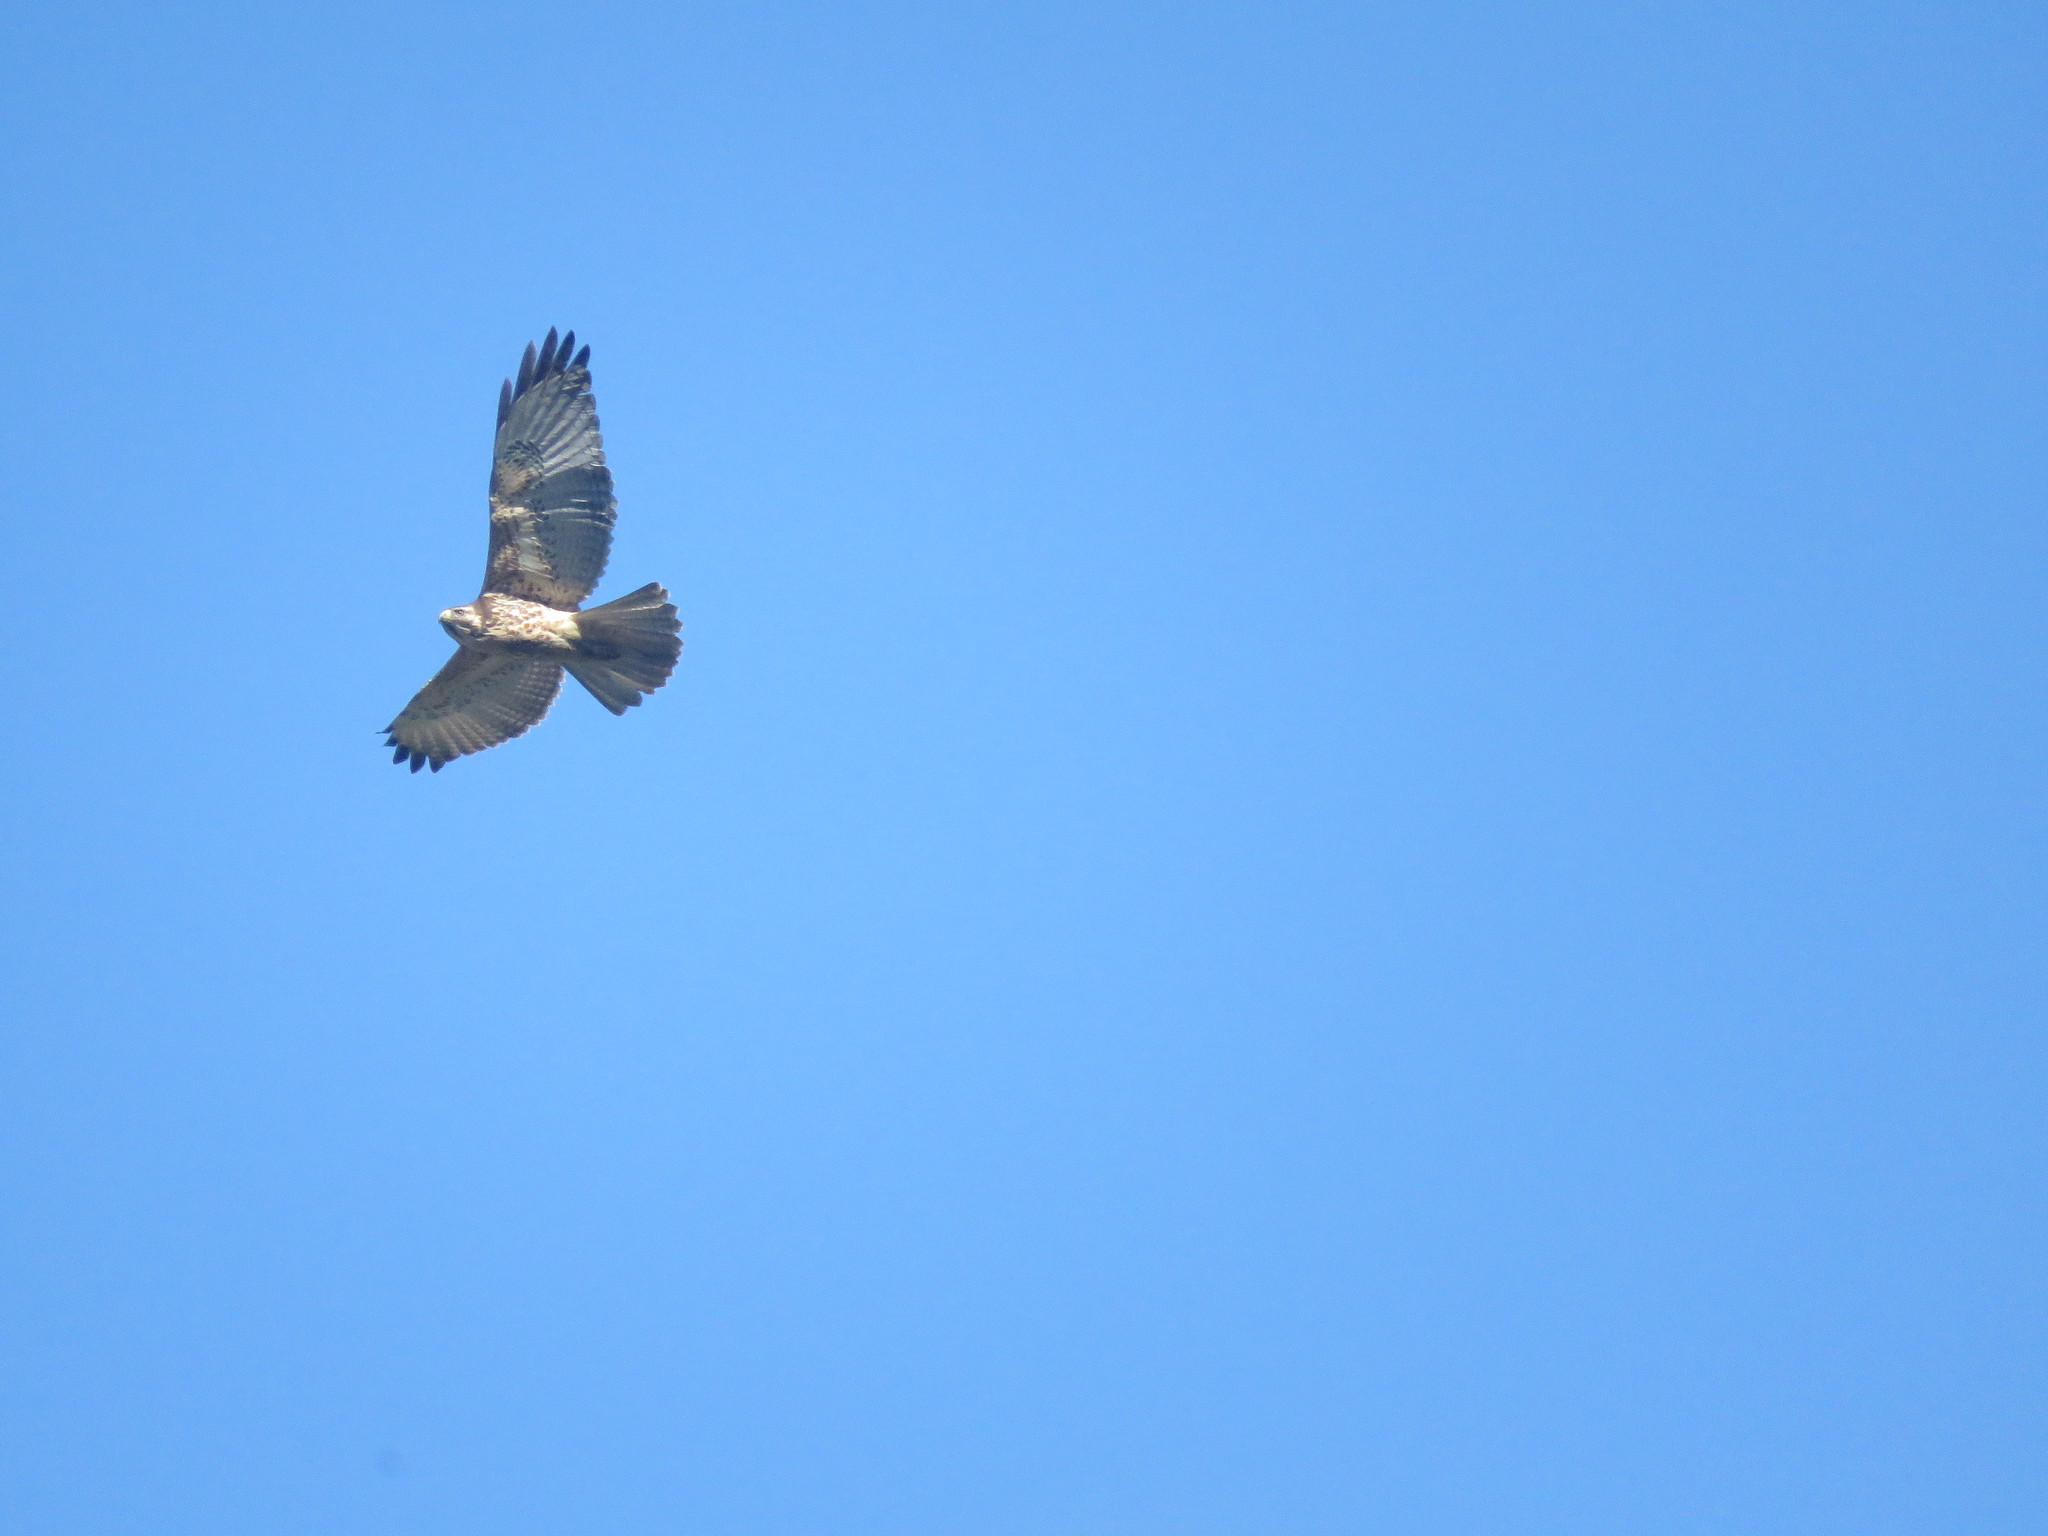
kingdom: Animalia
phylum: Chordata
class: Aves
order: Accipitriformes
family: Accipitridae
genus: Buteo
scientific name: Buteo polyosoma
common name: Variable hawk
